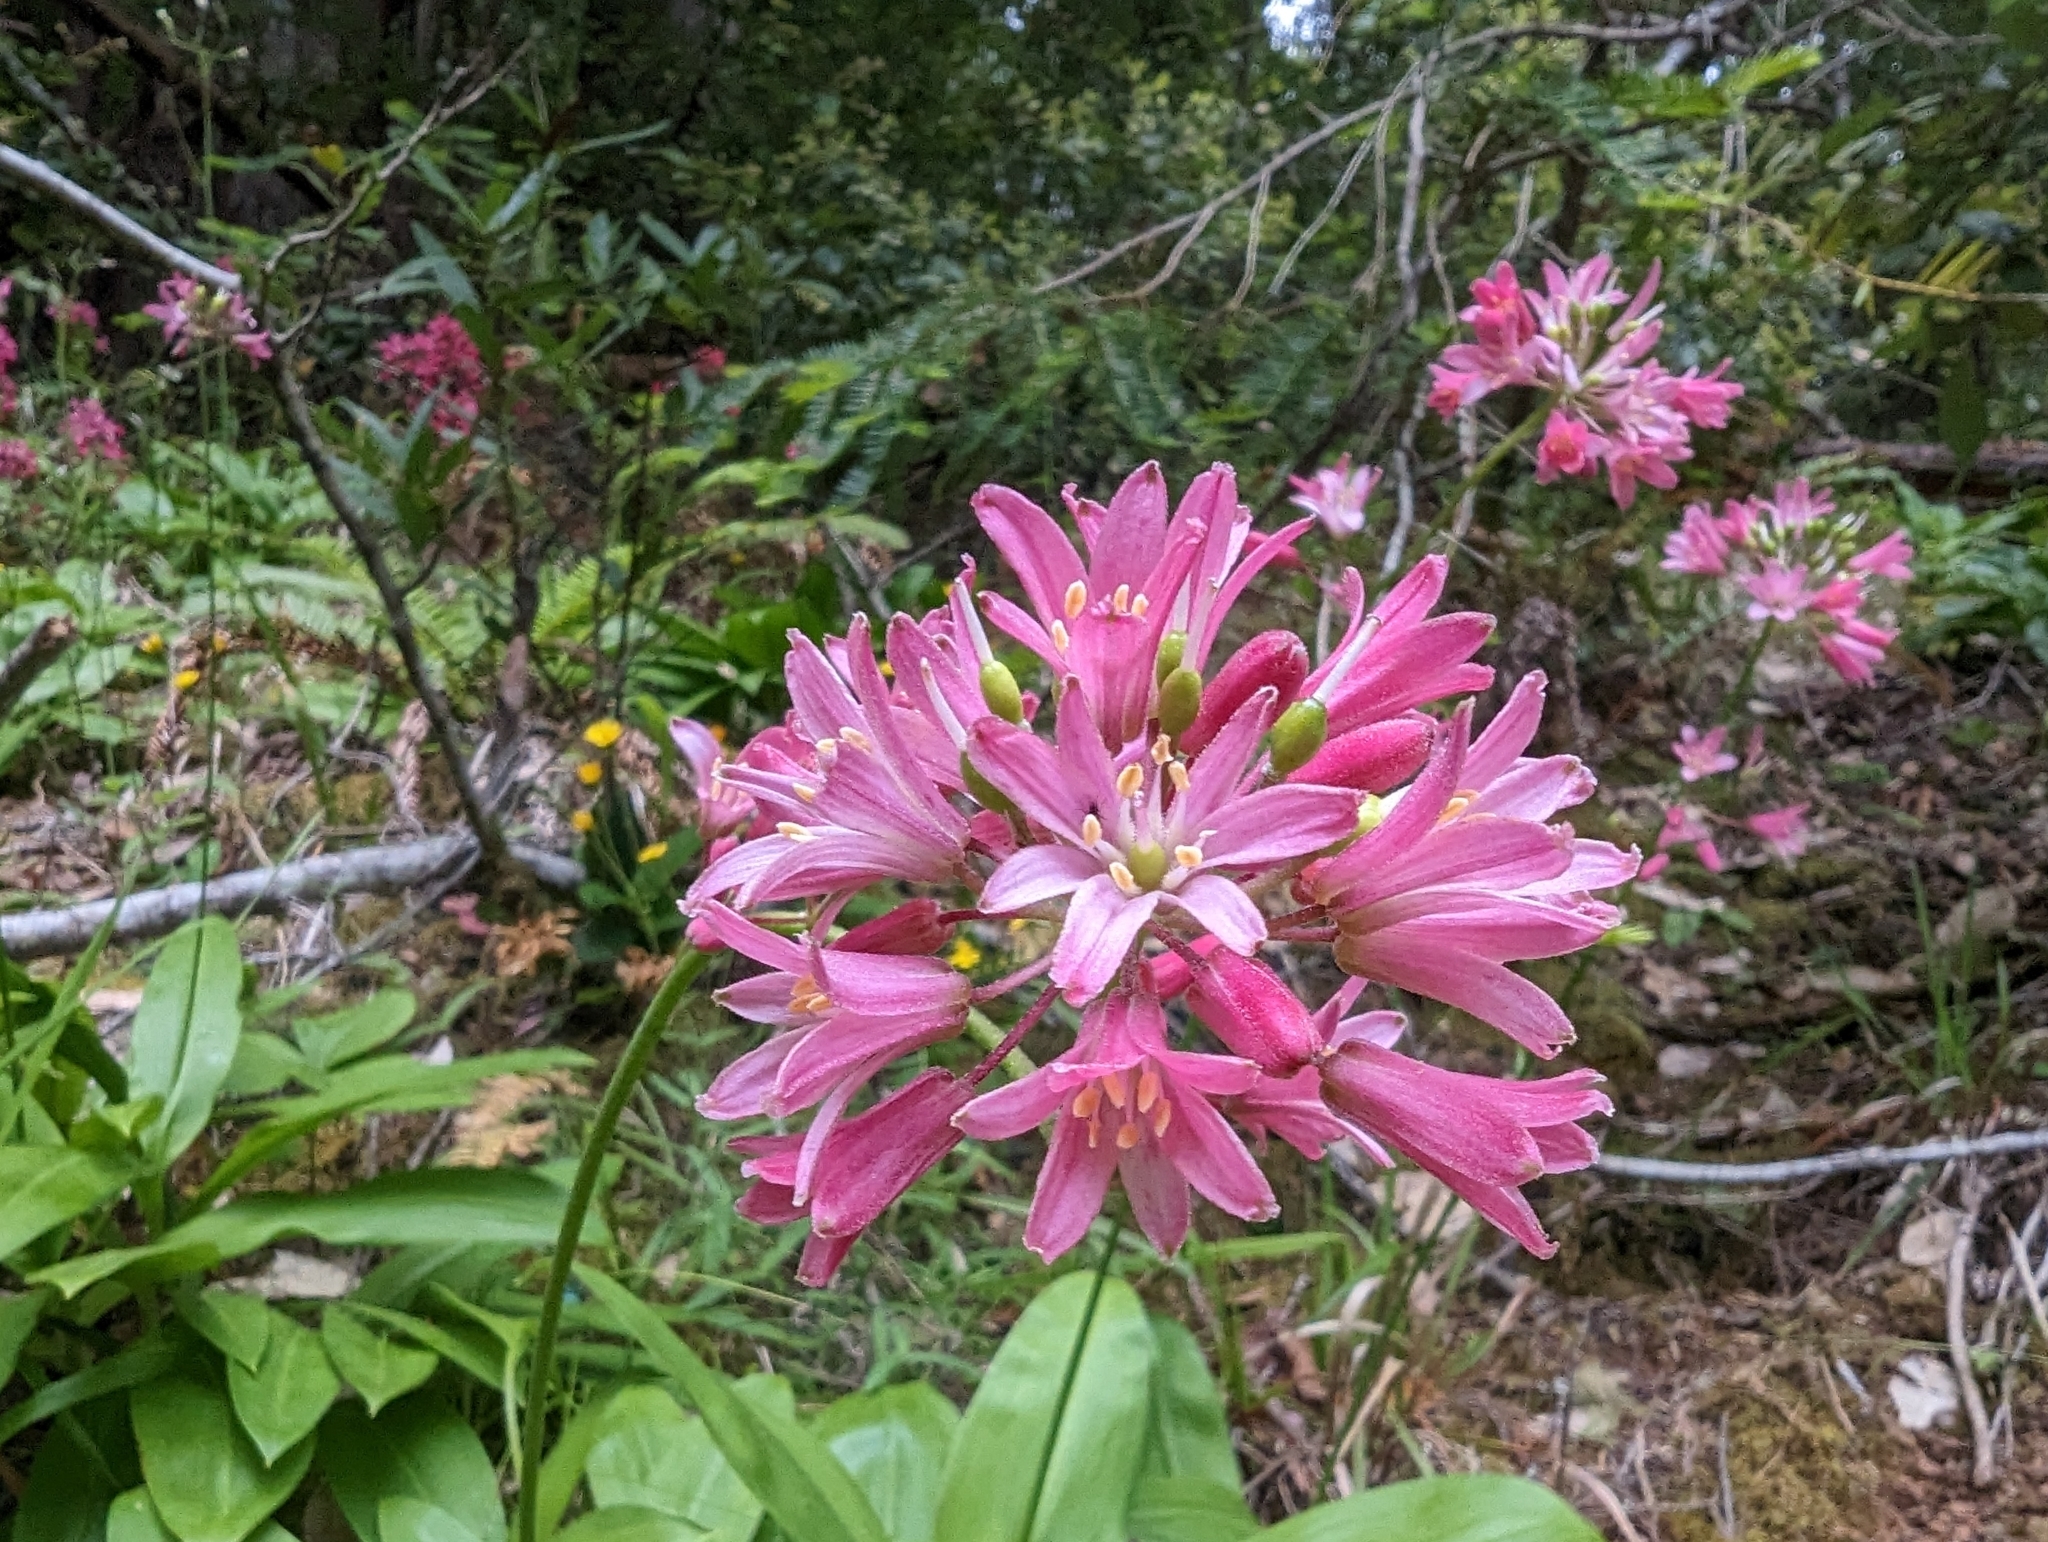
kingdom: Plantae
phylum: Tracheophyta
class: Liliopsida
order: Liliales
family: Liliaceae
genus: Clintonia
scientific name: Clintonia andrewsiana
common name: Red clintonia
